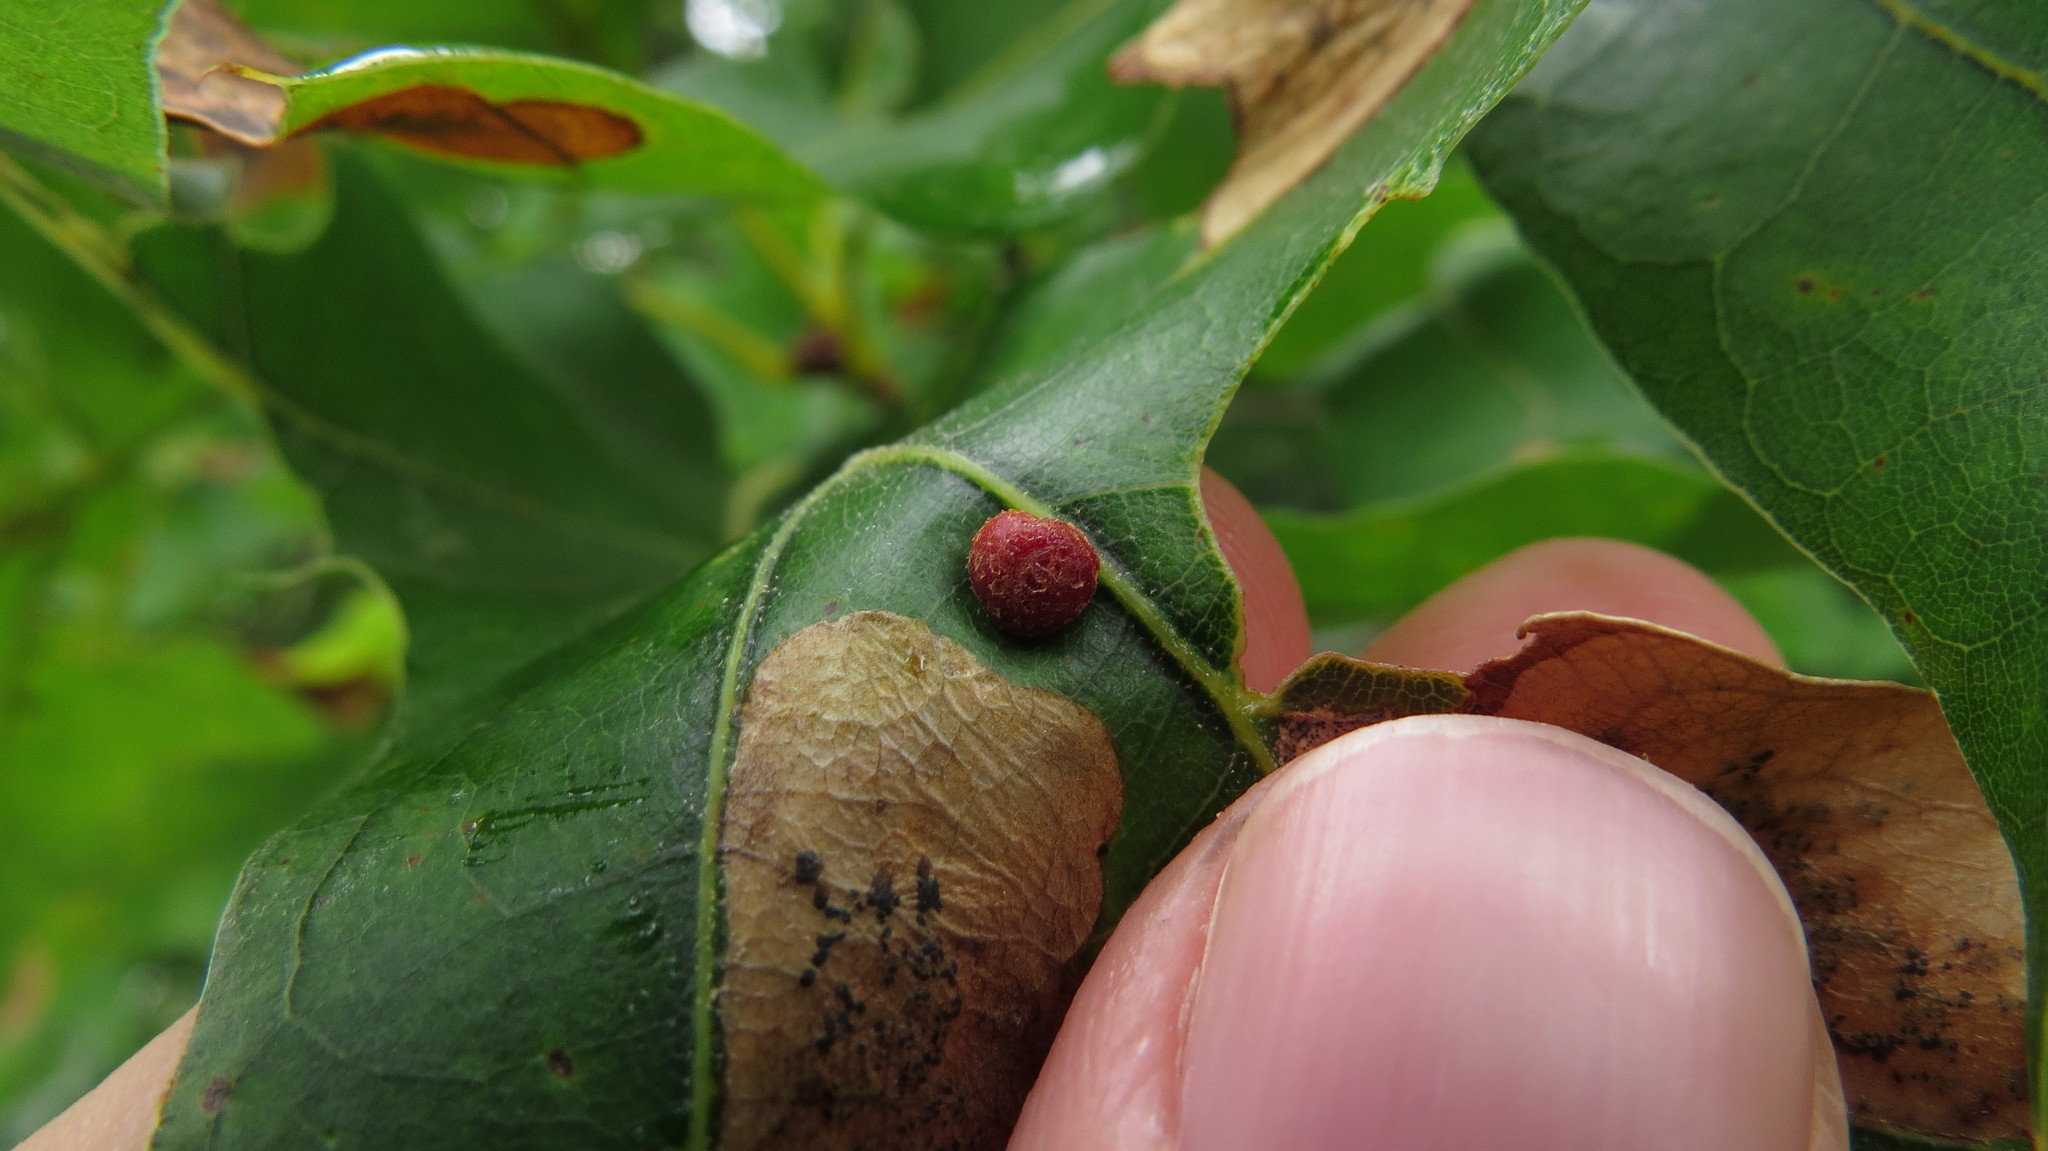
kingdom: Animalia
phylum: Arthropoda
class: Insecta
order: Diptera
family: Cecidomyiidae
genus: Polystepha
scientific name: Polystepha pilulae
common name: Oak leaf gall midge
